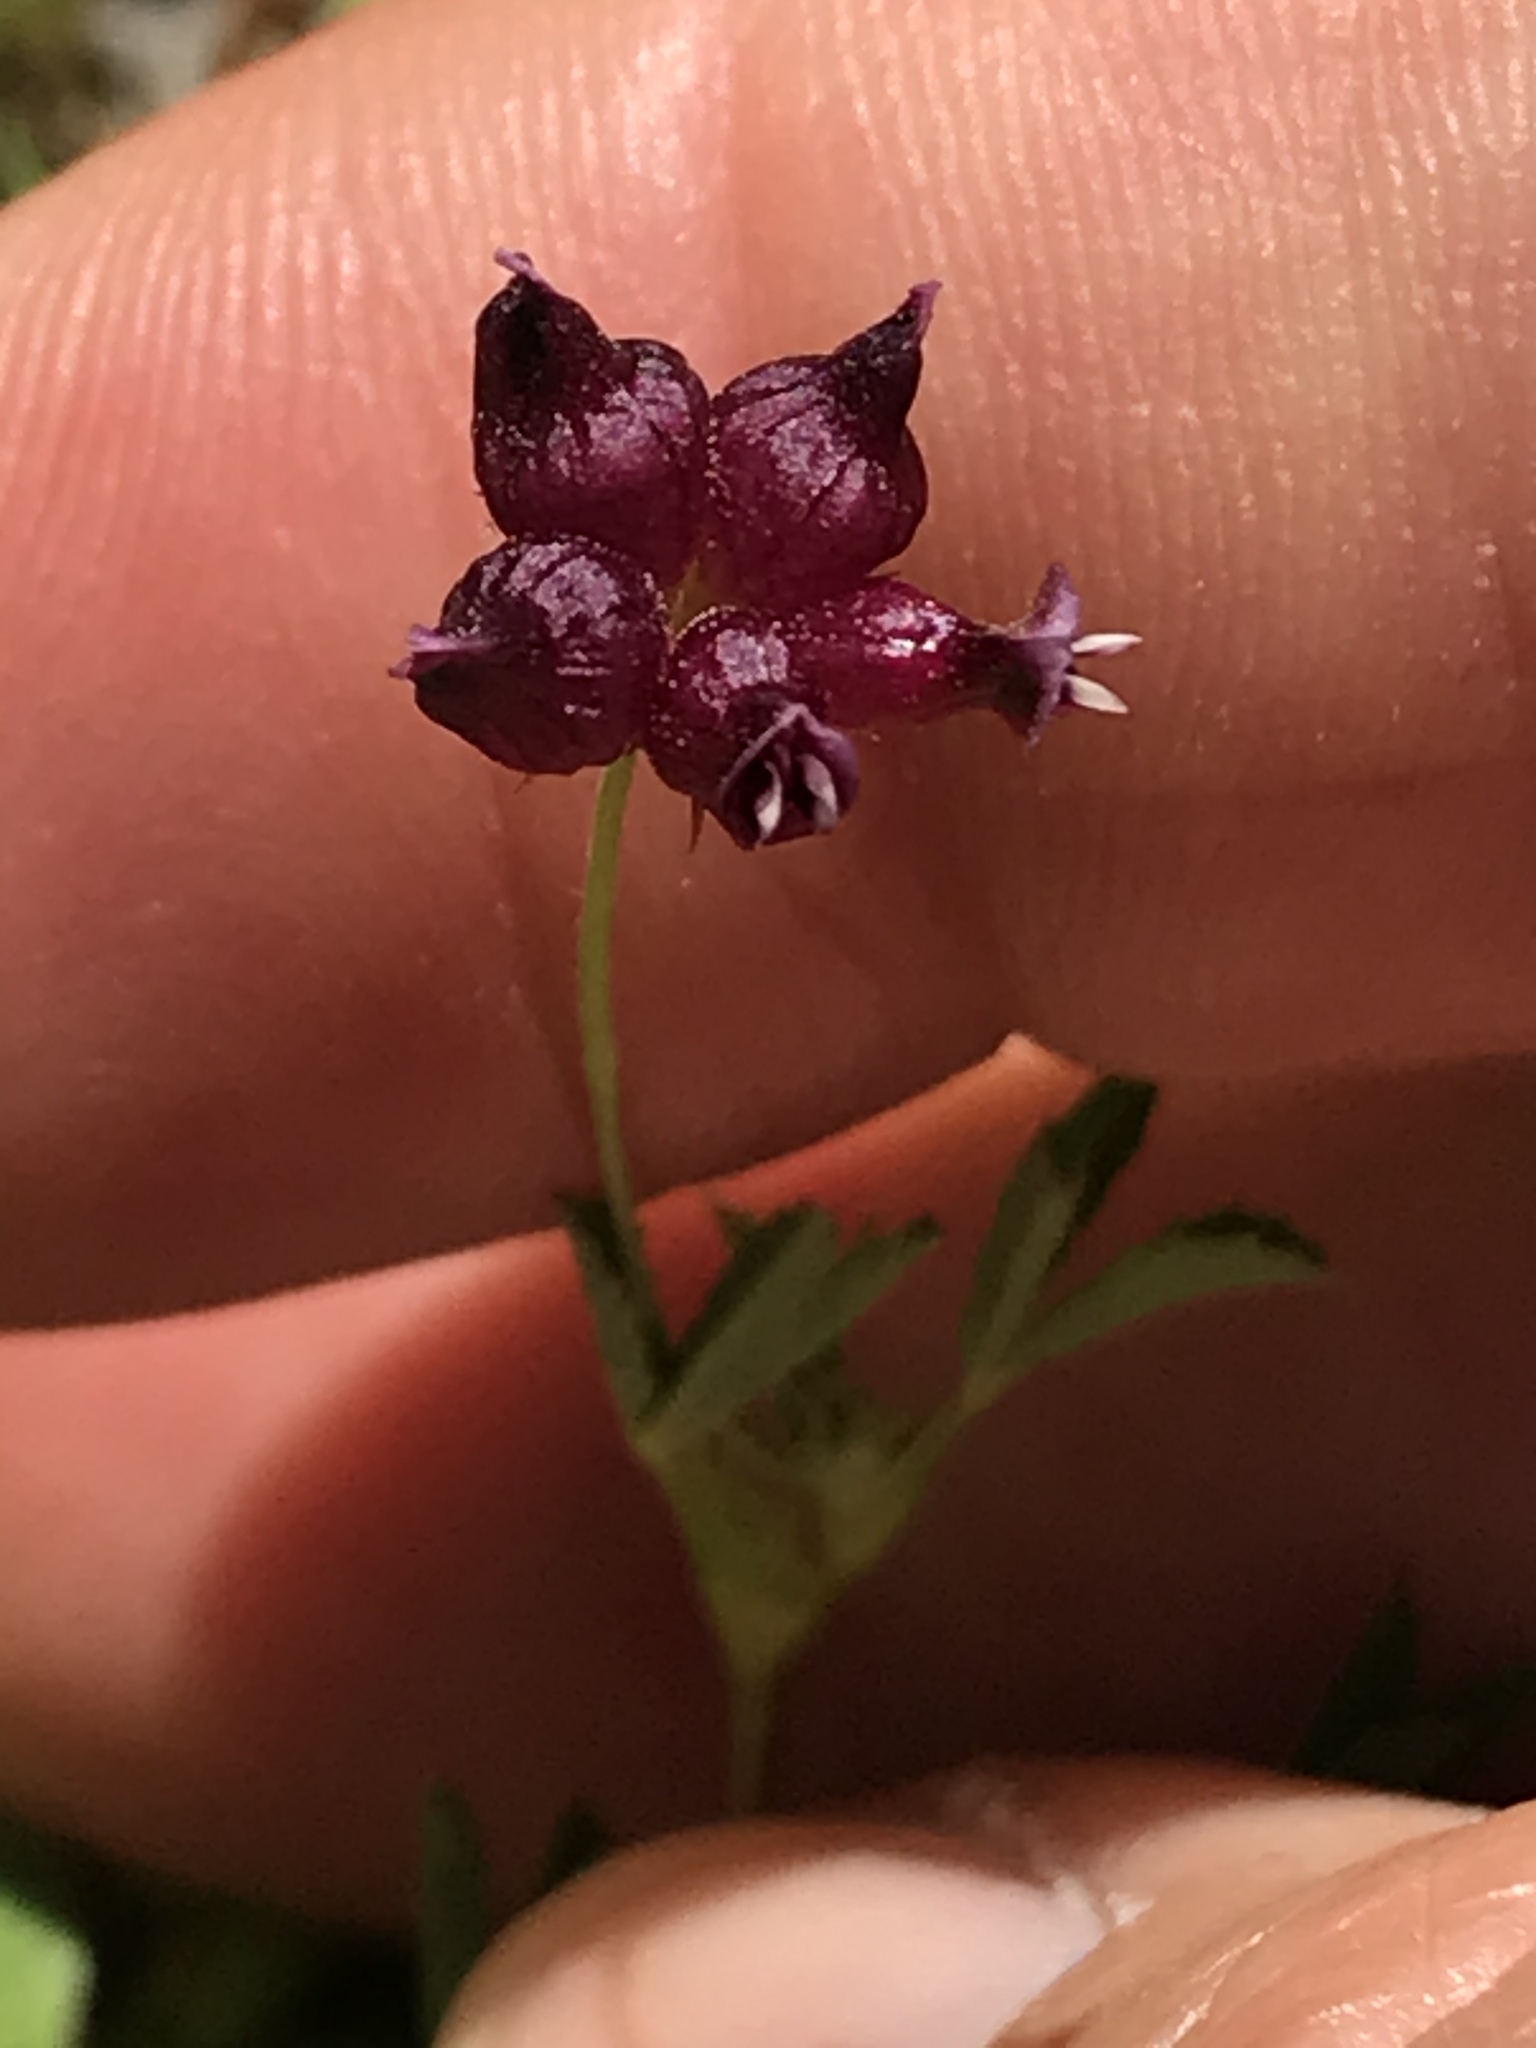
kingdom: Plantae
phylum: Tracheophyta
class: Magnoliopsida
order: Fabales
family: Fabaceae
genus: Trifolium
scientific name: Trifolium depauperatum
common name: Poverty clover
